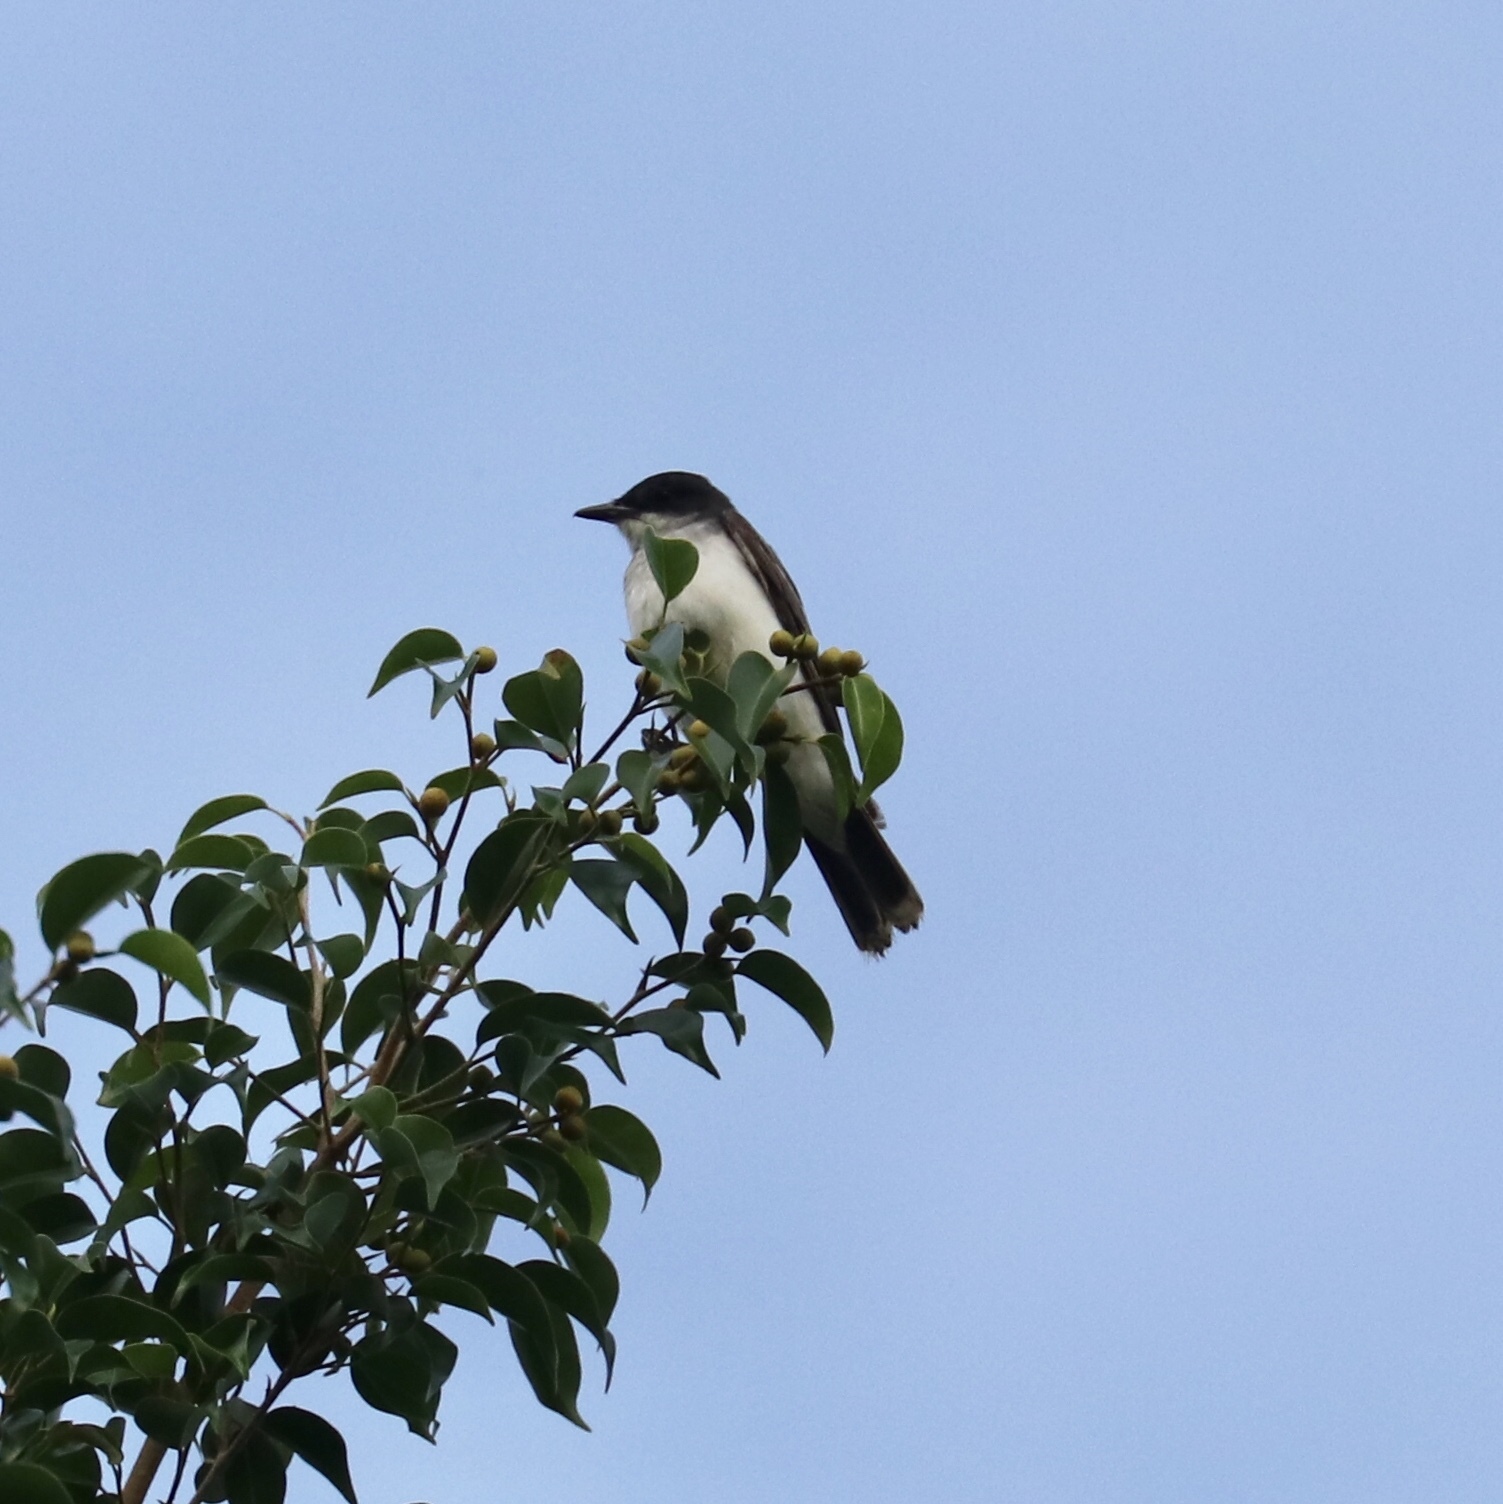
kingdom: Animalia
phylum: Chordata
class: Aves
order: Passeriformes
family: Tyrannidae
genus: Tyrannus
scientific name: Tyrannus tyrannus
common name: Eastern kingbird
